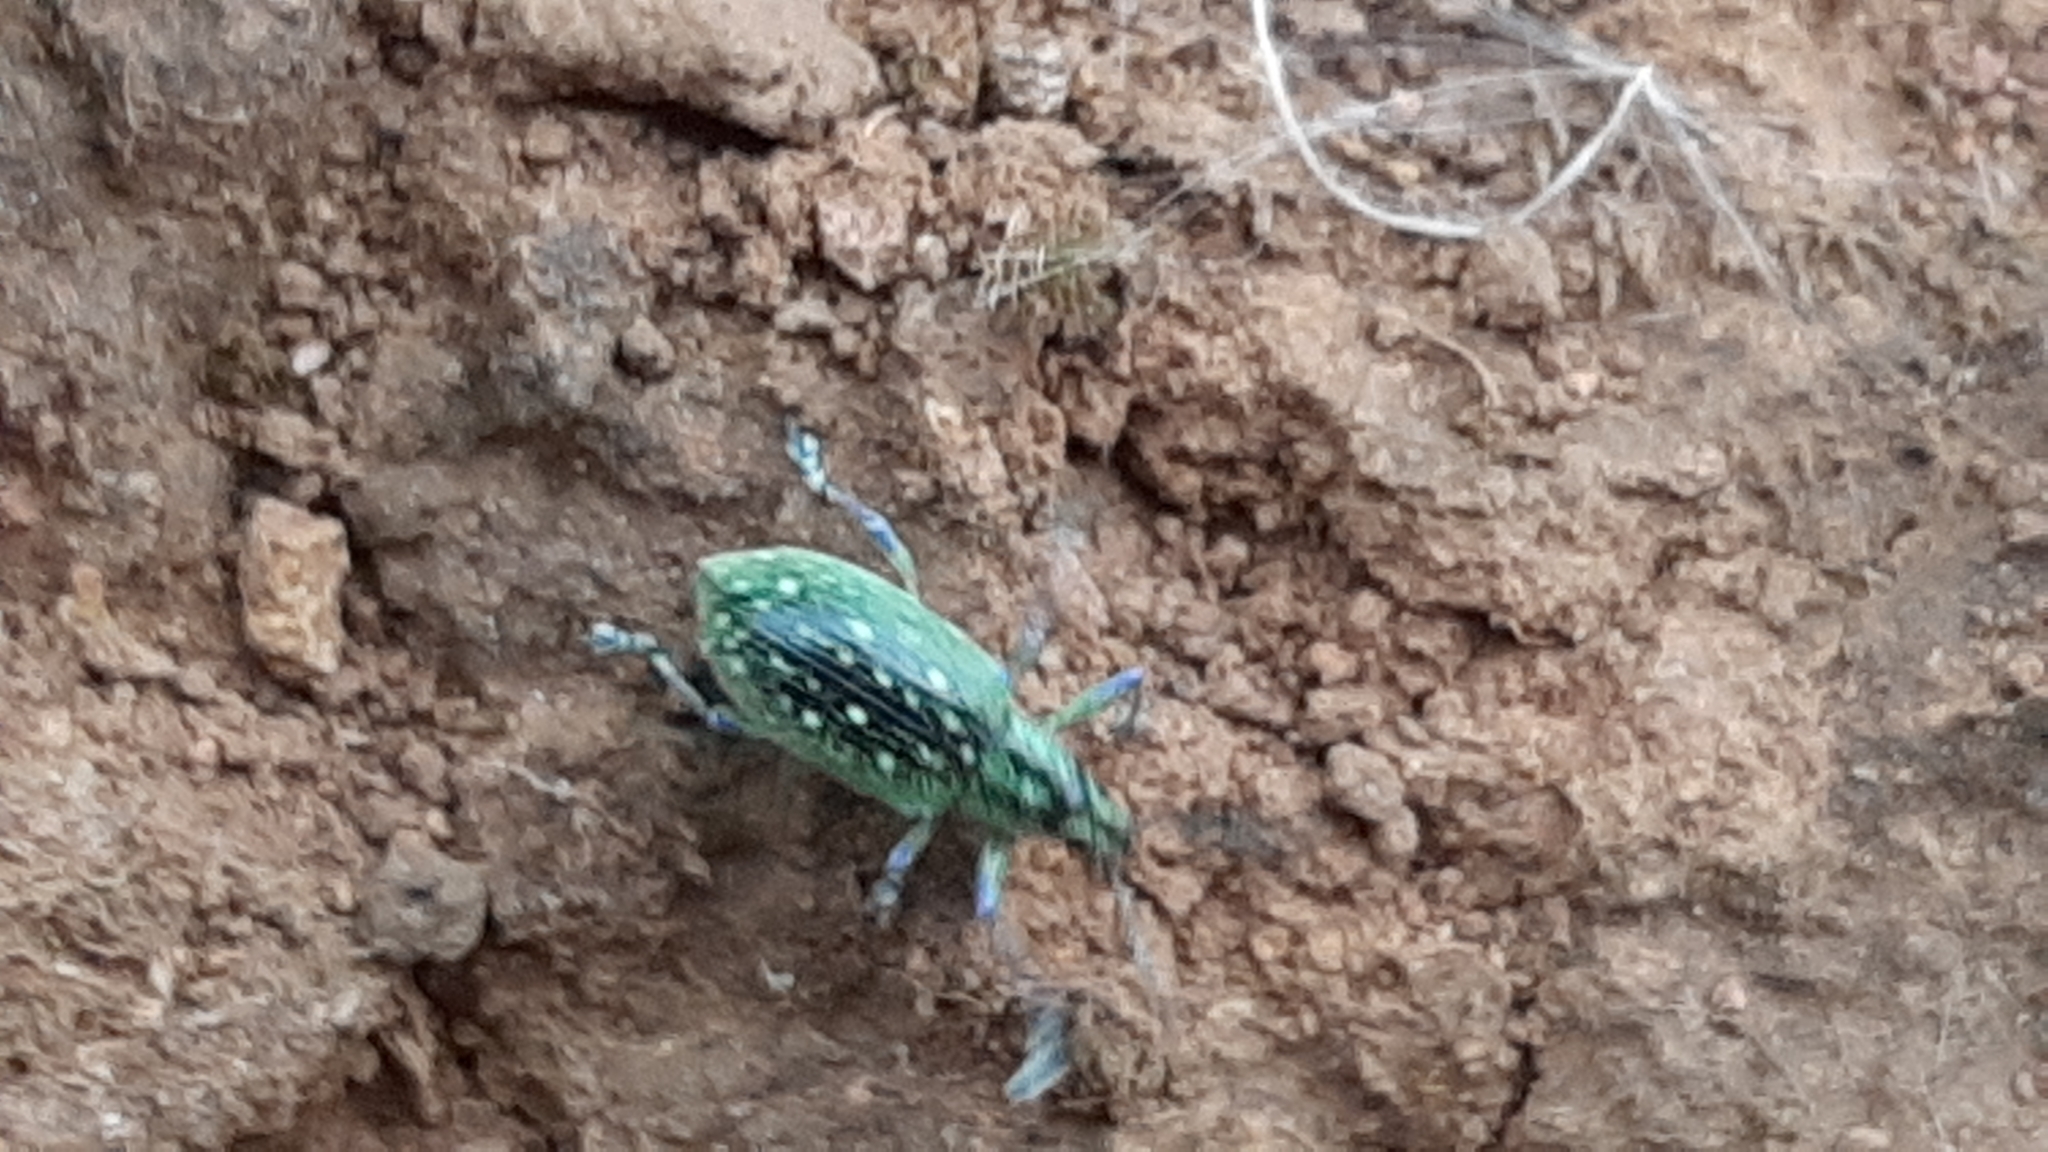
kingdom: Animalia
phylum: Arthropoda
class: Insecta
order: Coleoptera
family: Curculionidae
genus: Exophthalmus
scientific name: Exophthalmus jekelianus
